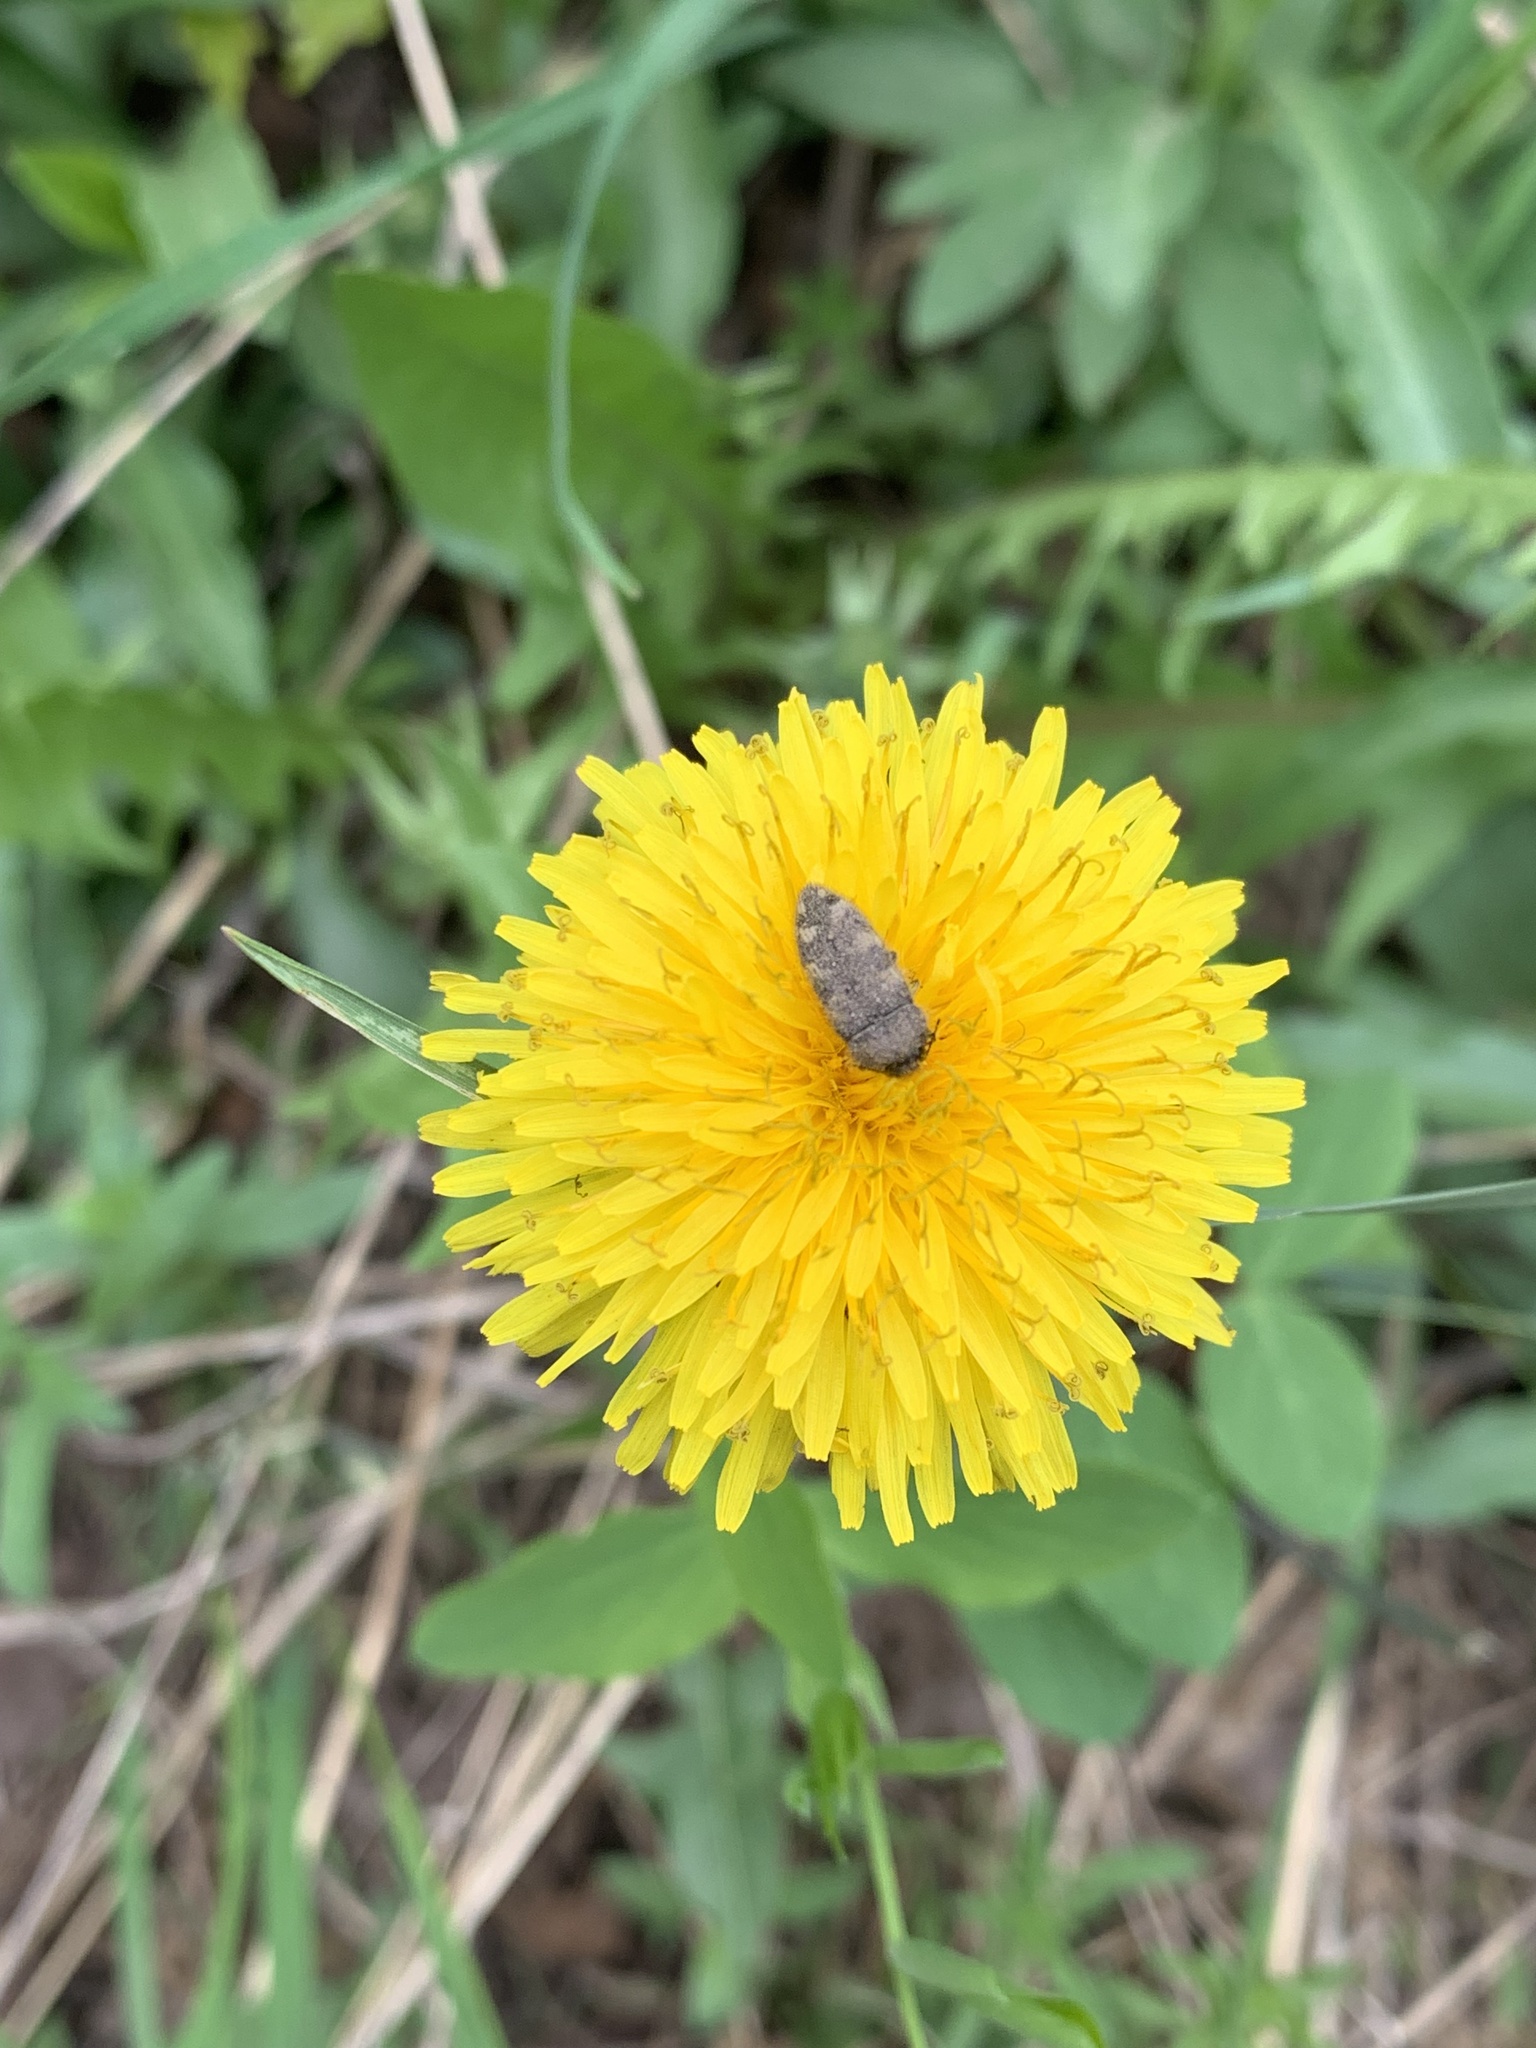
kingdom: Animalia
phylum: Arthropoda
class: Insecta
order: Coleoptera
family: Buprestidae
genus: Acmaeodera
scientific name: Acmaeodera diffusa
